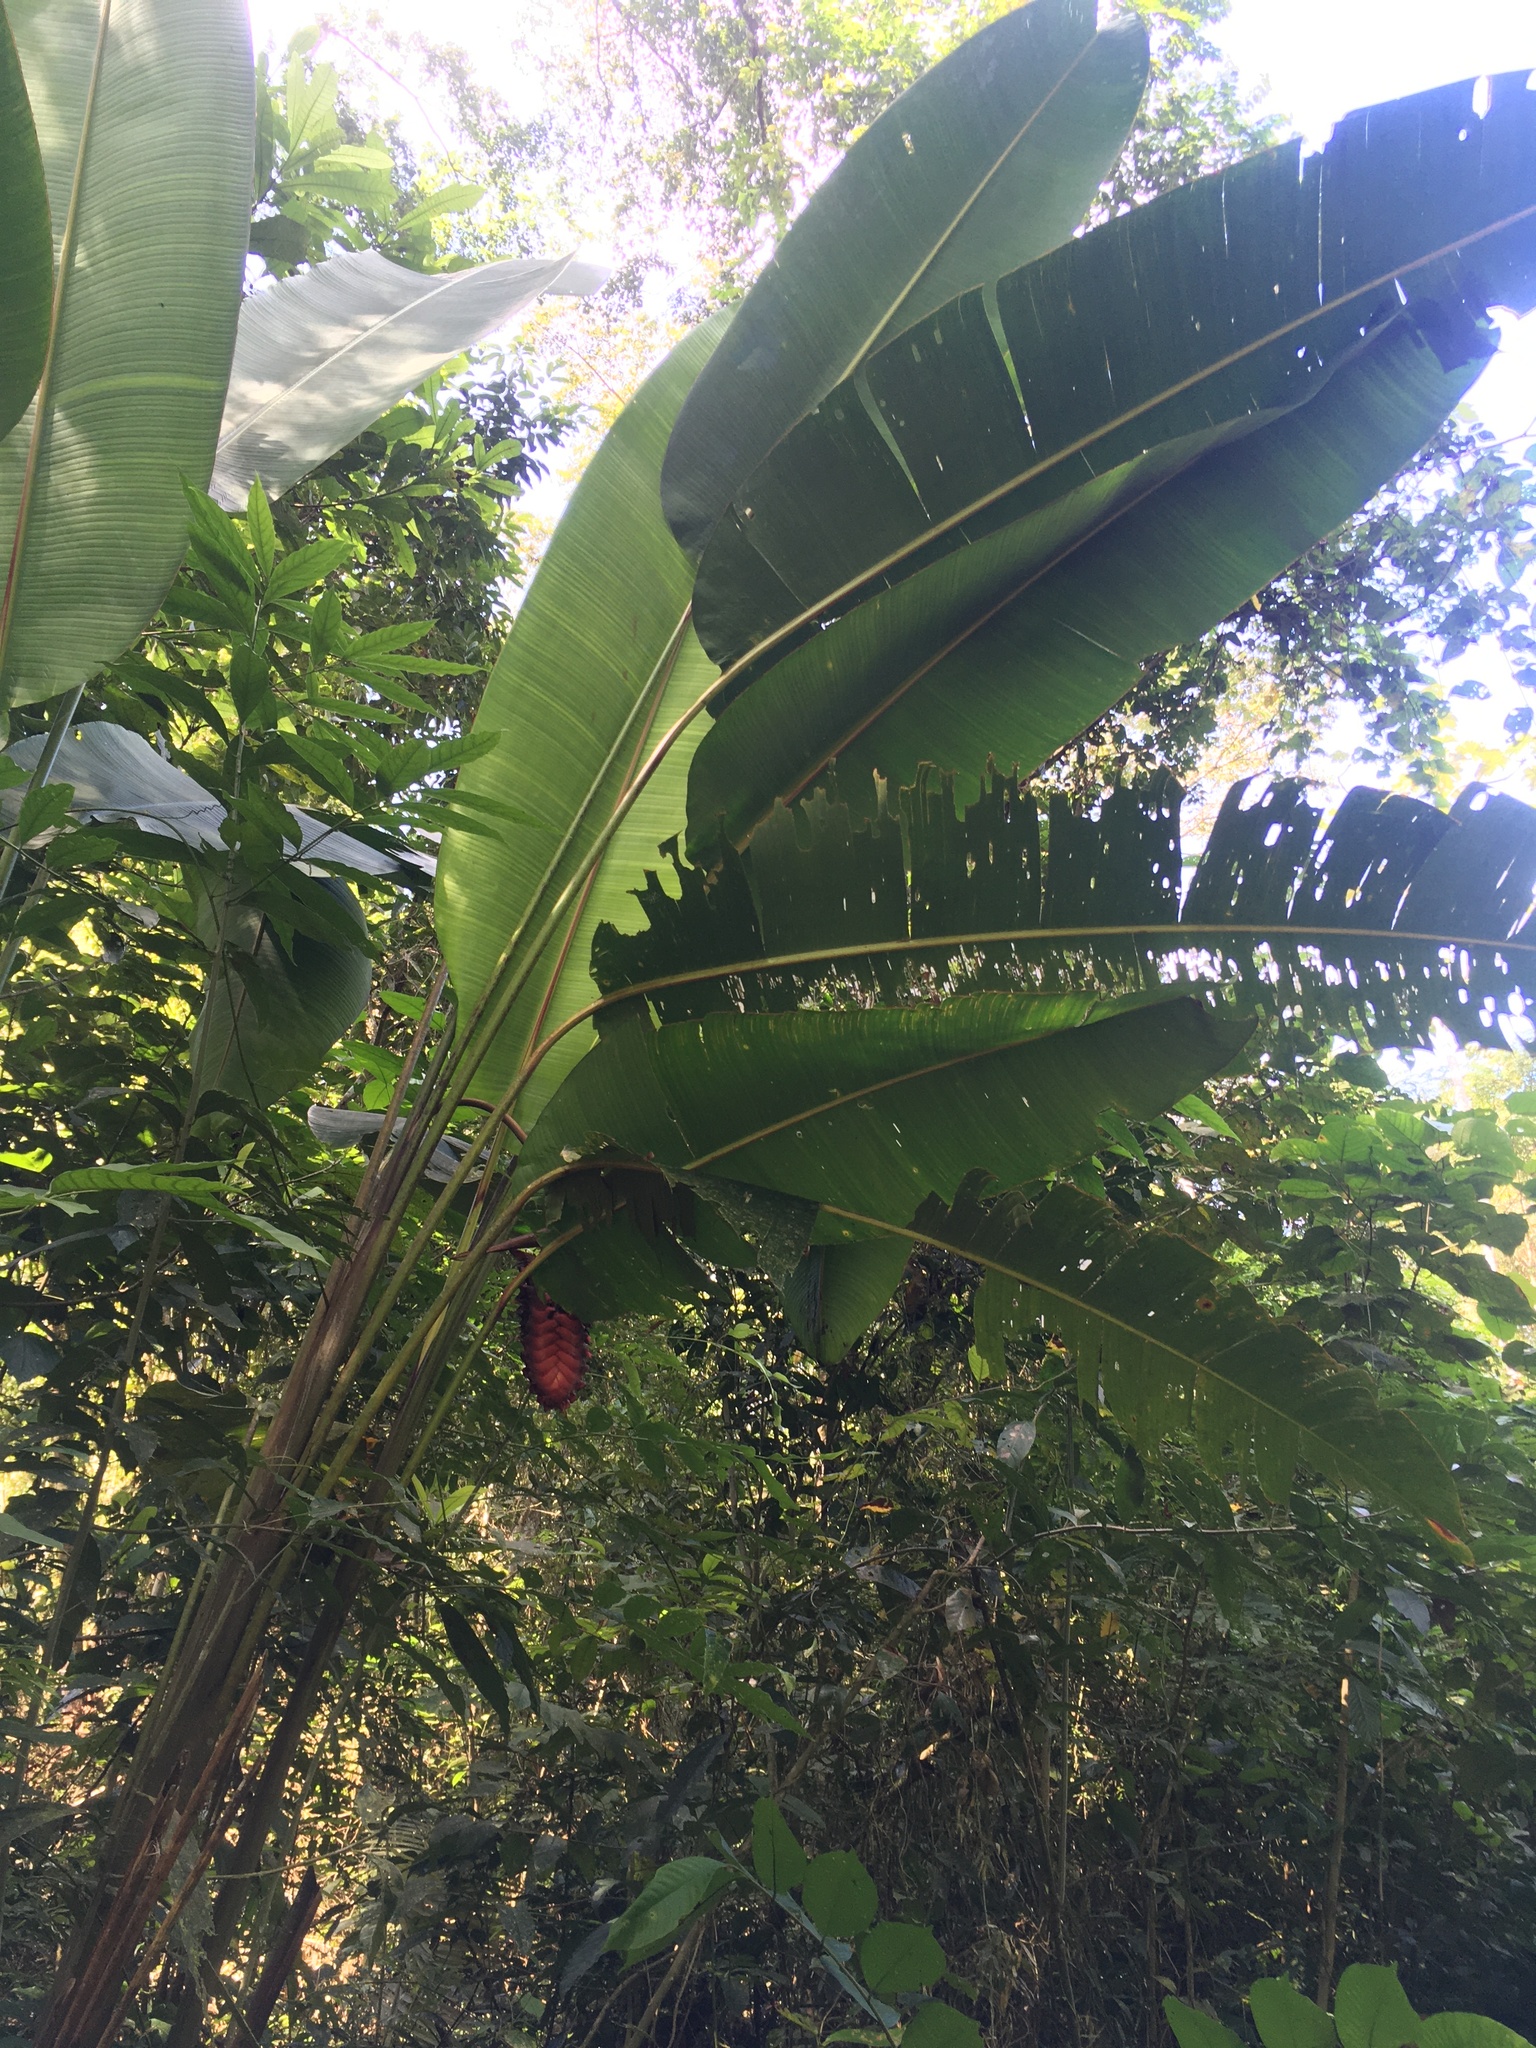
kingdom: Plantae
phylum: Tracheophyta
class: Liliopsida
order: Zingiberales
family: Heliconiaceae
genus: Heliconia
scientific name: Heliconia mariae
